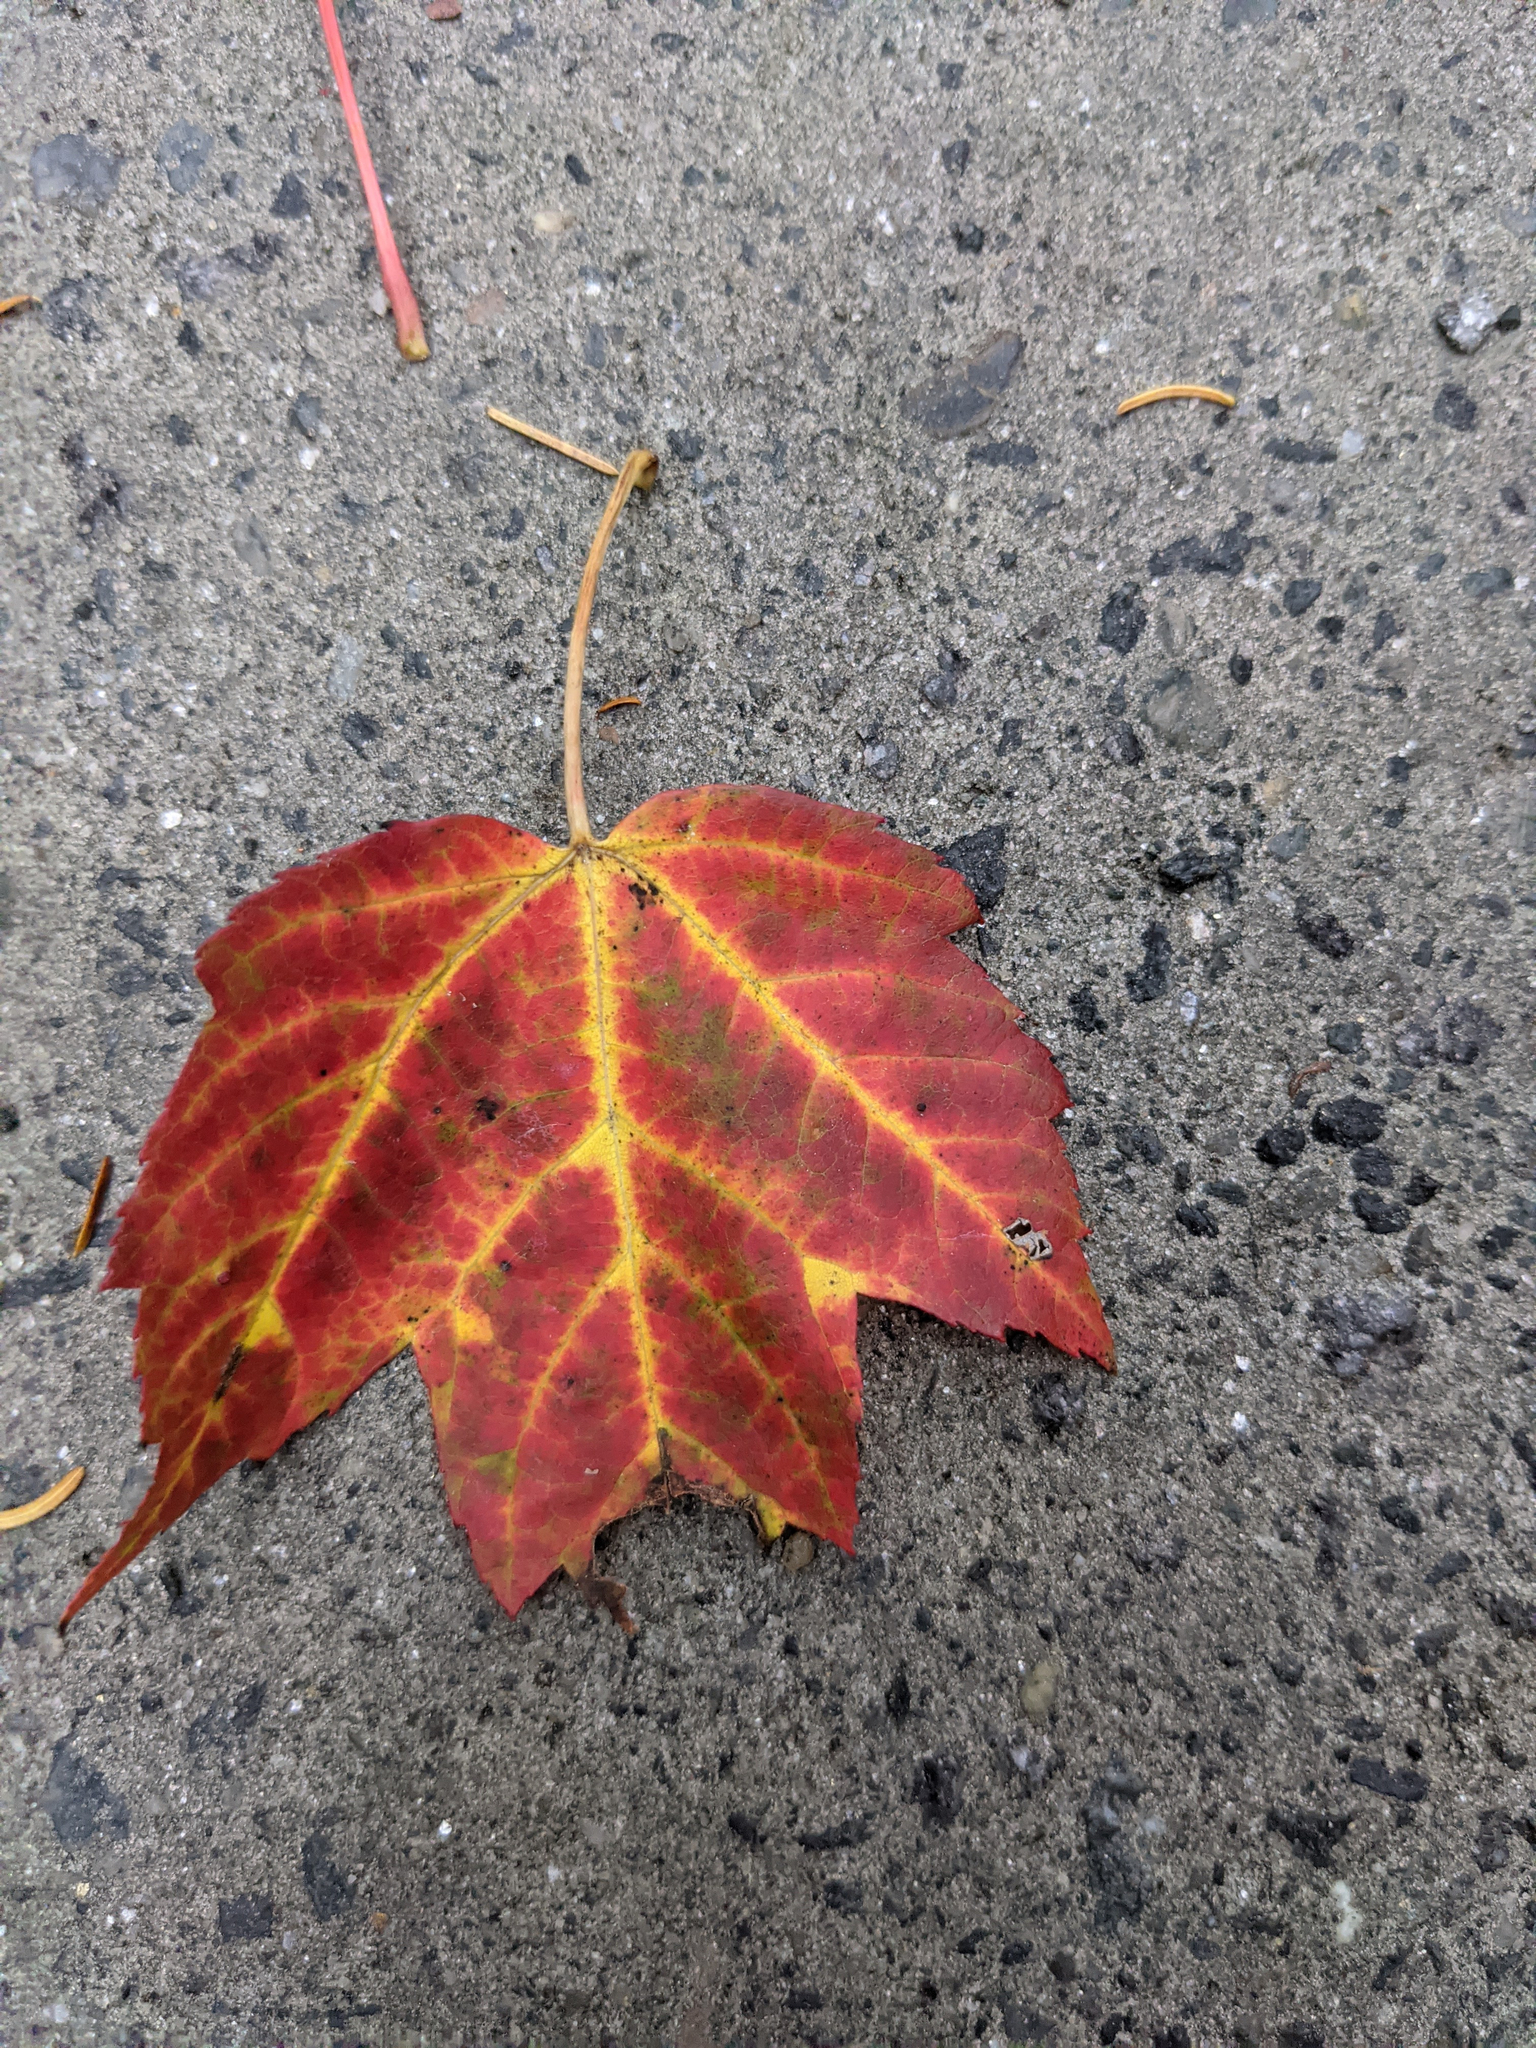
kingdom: Plantae
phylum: Tracheophyta
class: Magnoliopsida
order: Sapindales
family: Sapindaceae
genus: Acer
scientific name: Acer rubrum
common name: Red maple
